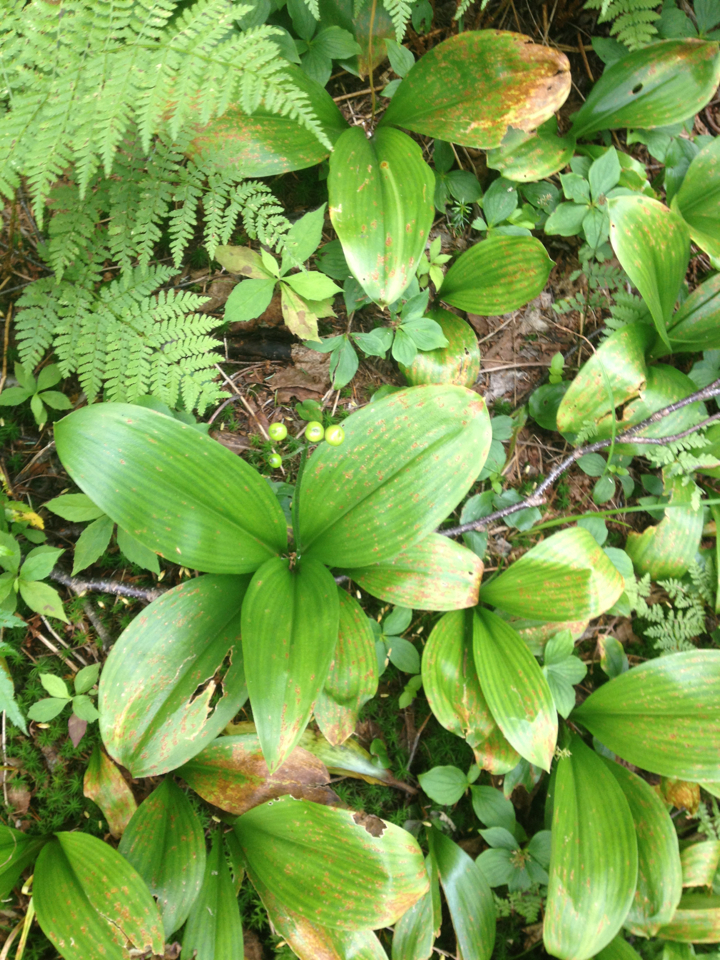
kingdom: Plantae
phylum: Tracheophyta
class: Liliopsida
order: Liliales
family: Liliaceae
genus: Clintonia
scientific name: Clintonia borealis
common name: Yellow clintonia
